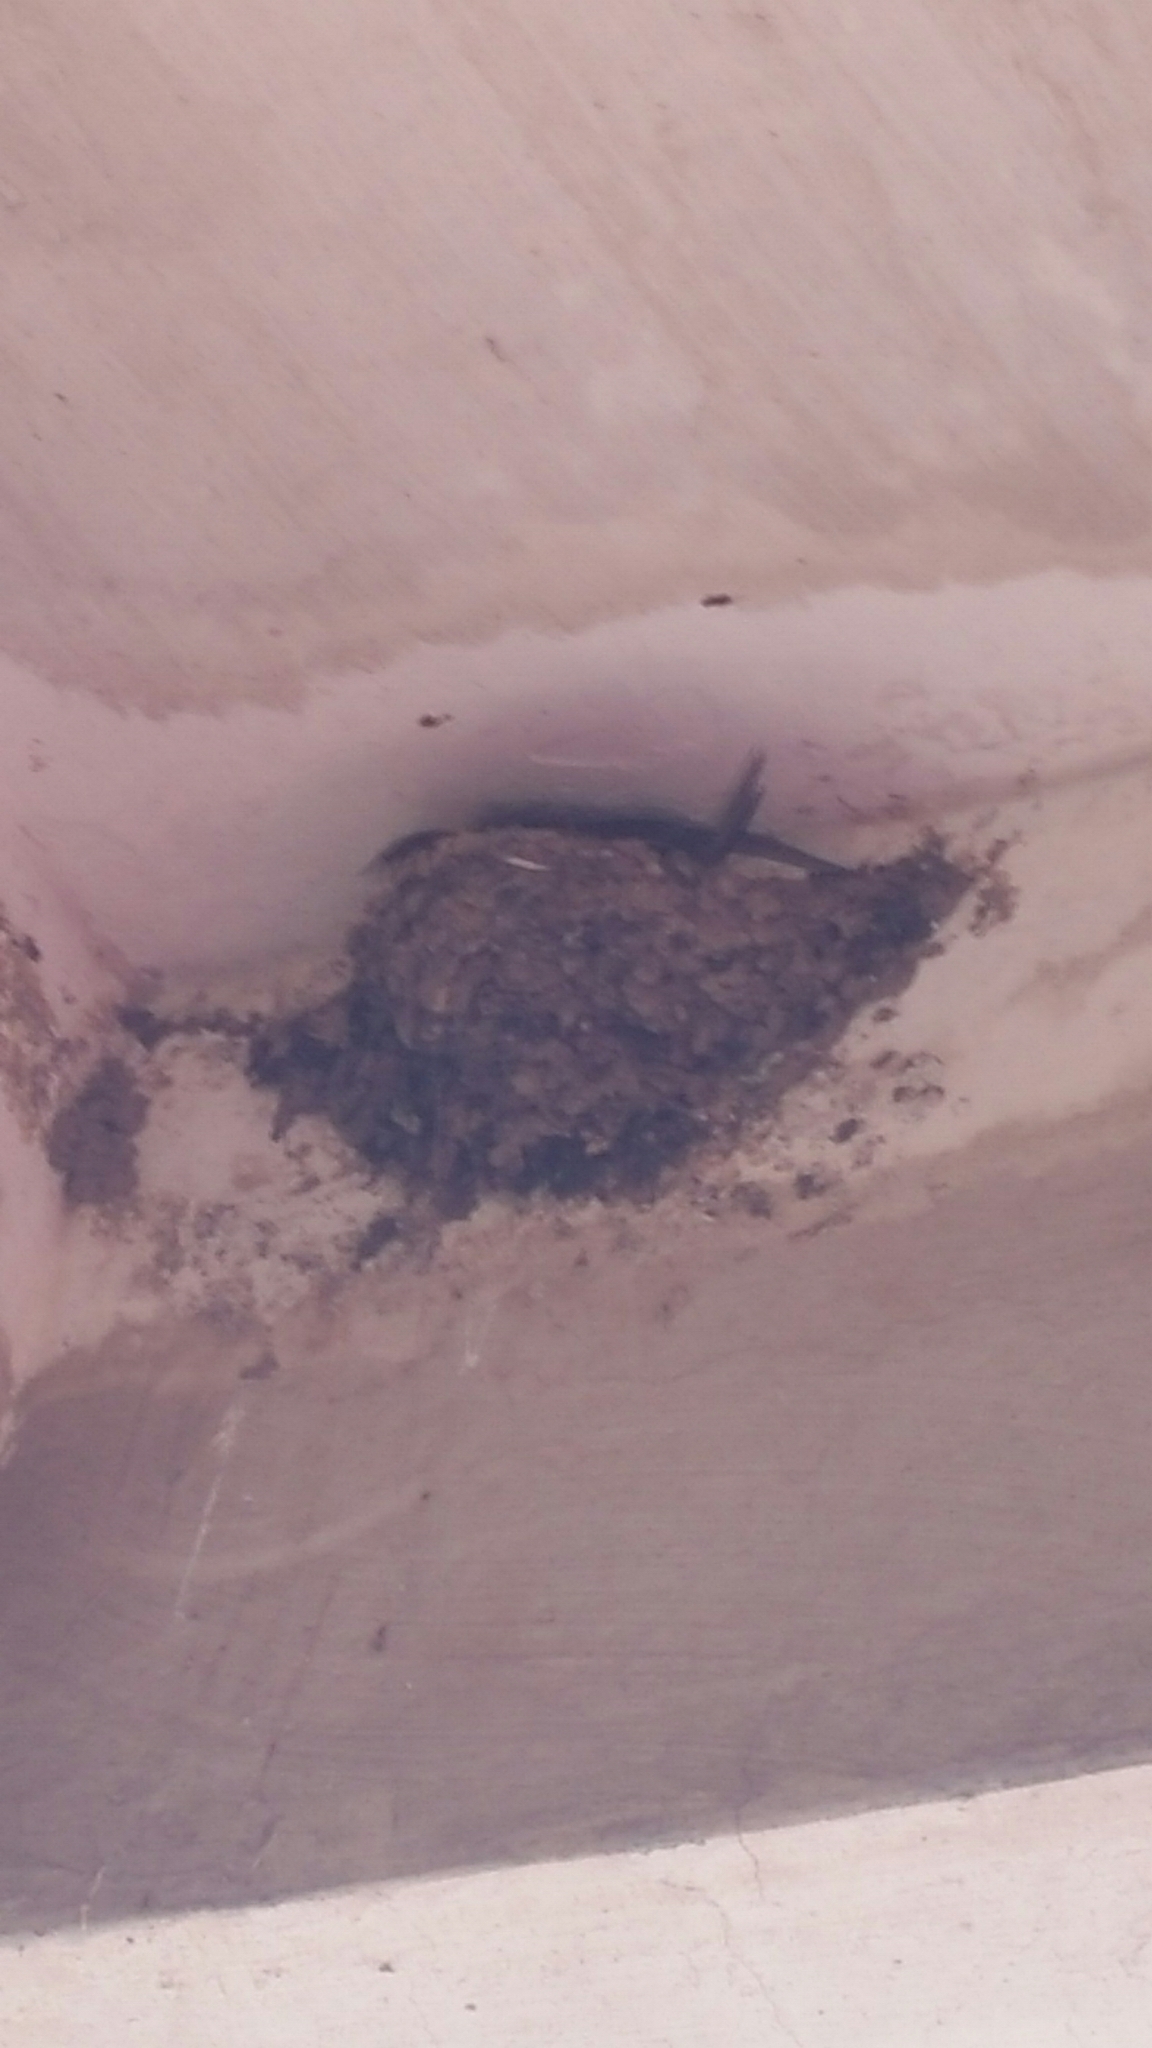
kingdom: Animalia
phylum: Chordata
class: Aves
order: Passeriformes
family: Hirundinidae
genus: Hirundo
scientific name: Hirundo rustica
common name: Barn swallow
